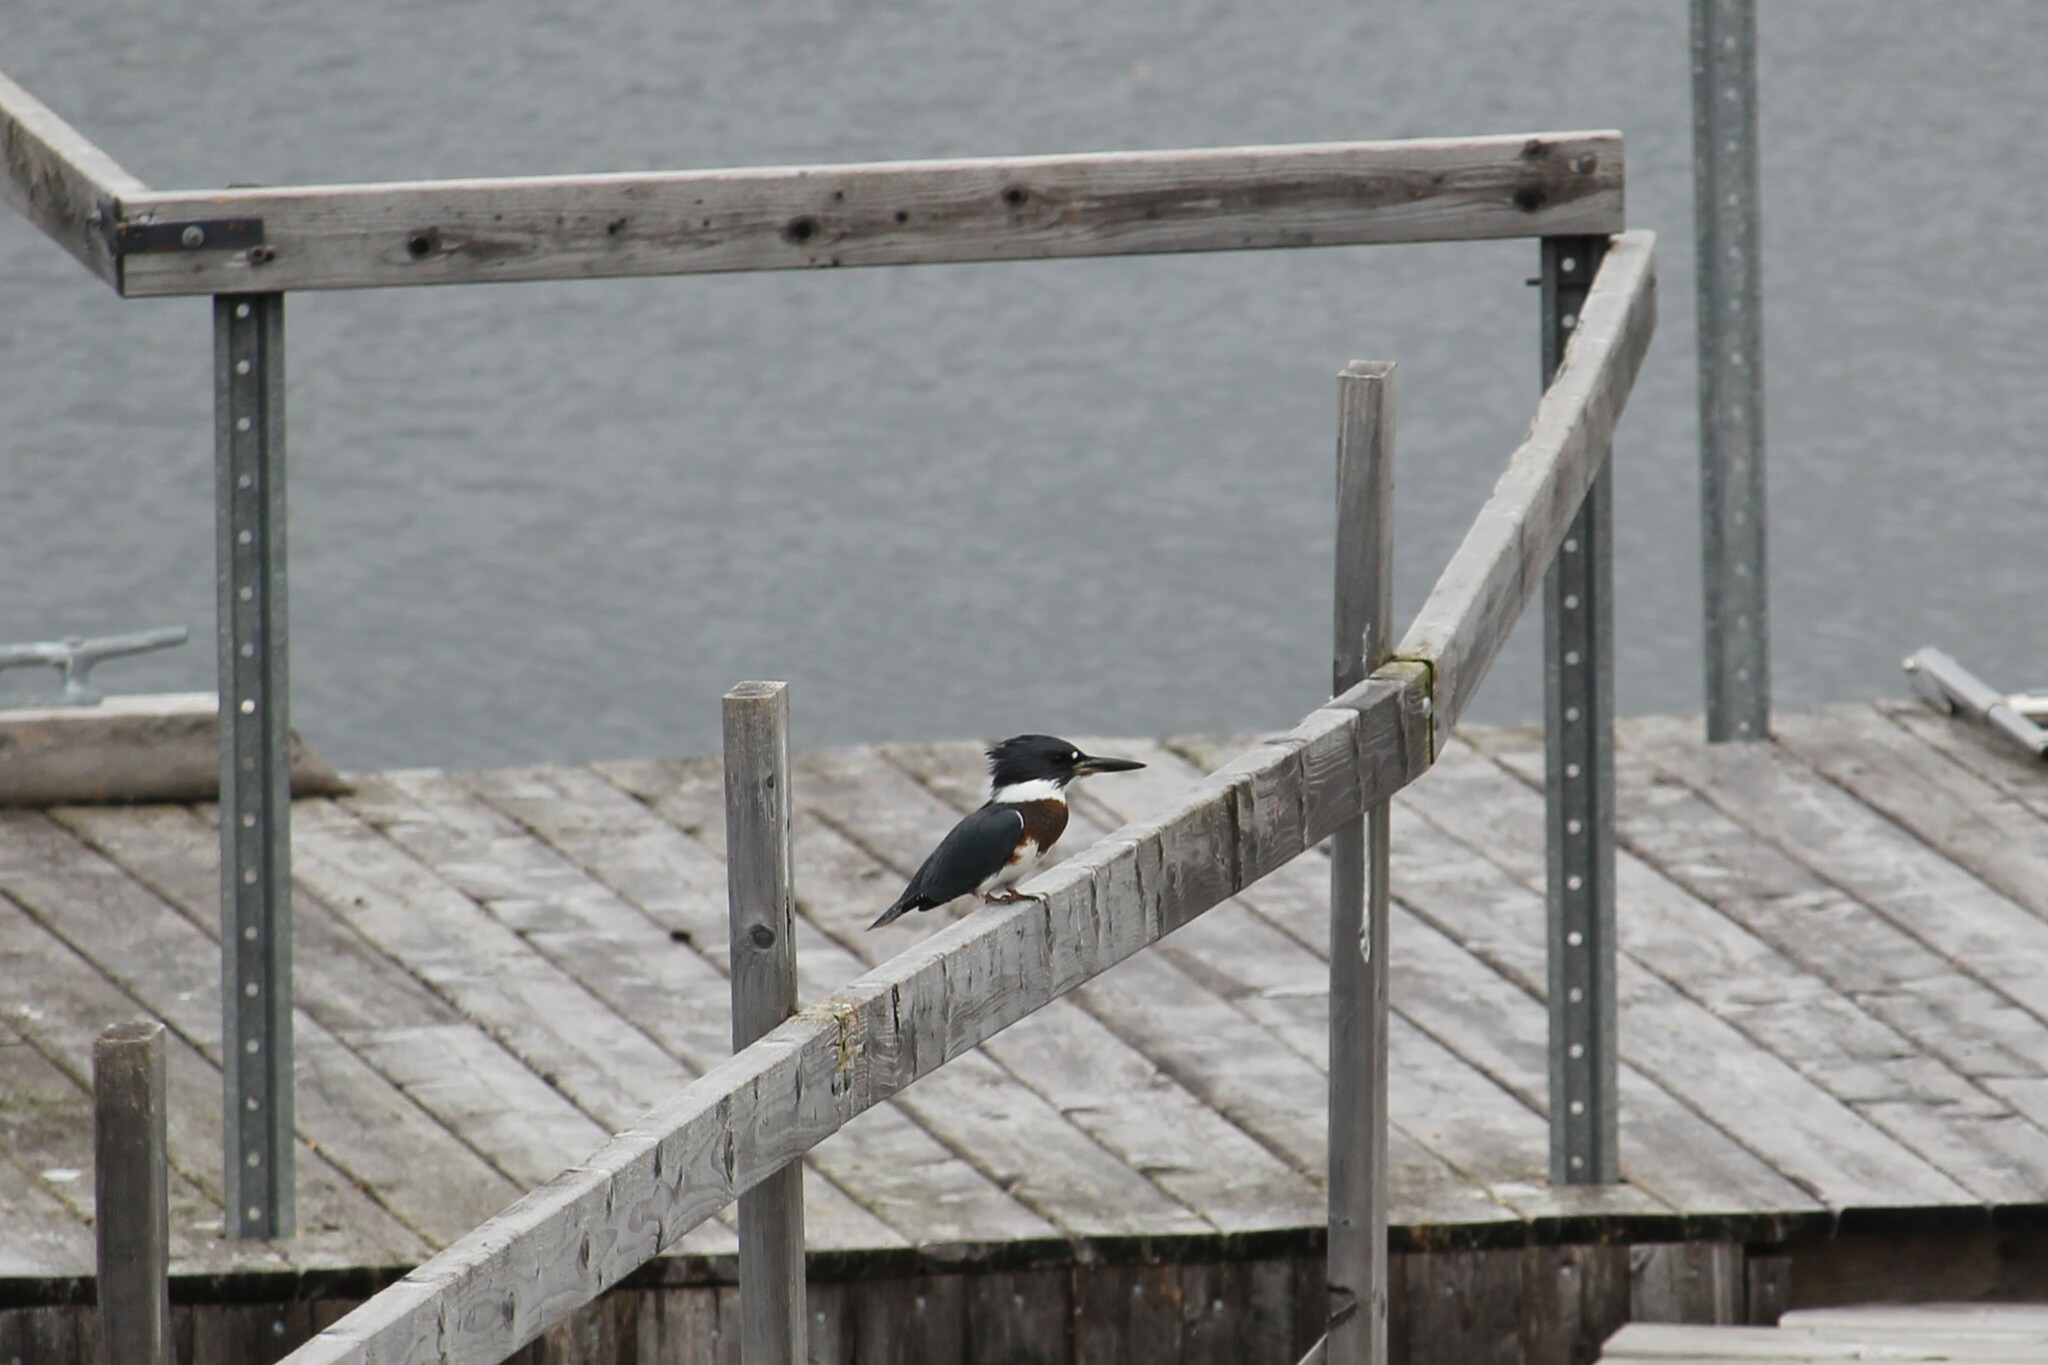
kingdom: Animalia
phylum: Chordata
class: Aves
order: Coraciiformes
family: Alcedinidae
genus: Megaceryle
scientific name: Megaceryle alcyon
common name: Belted kingfisher
